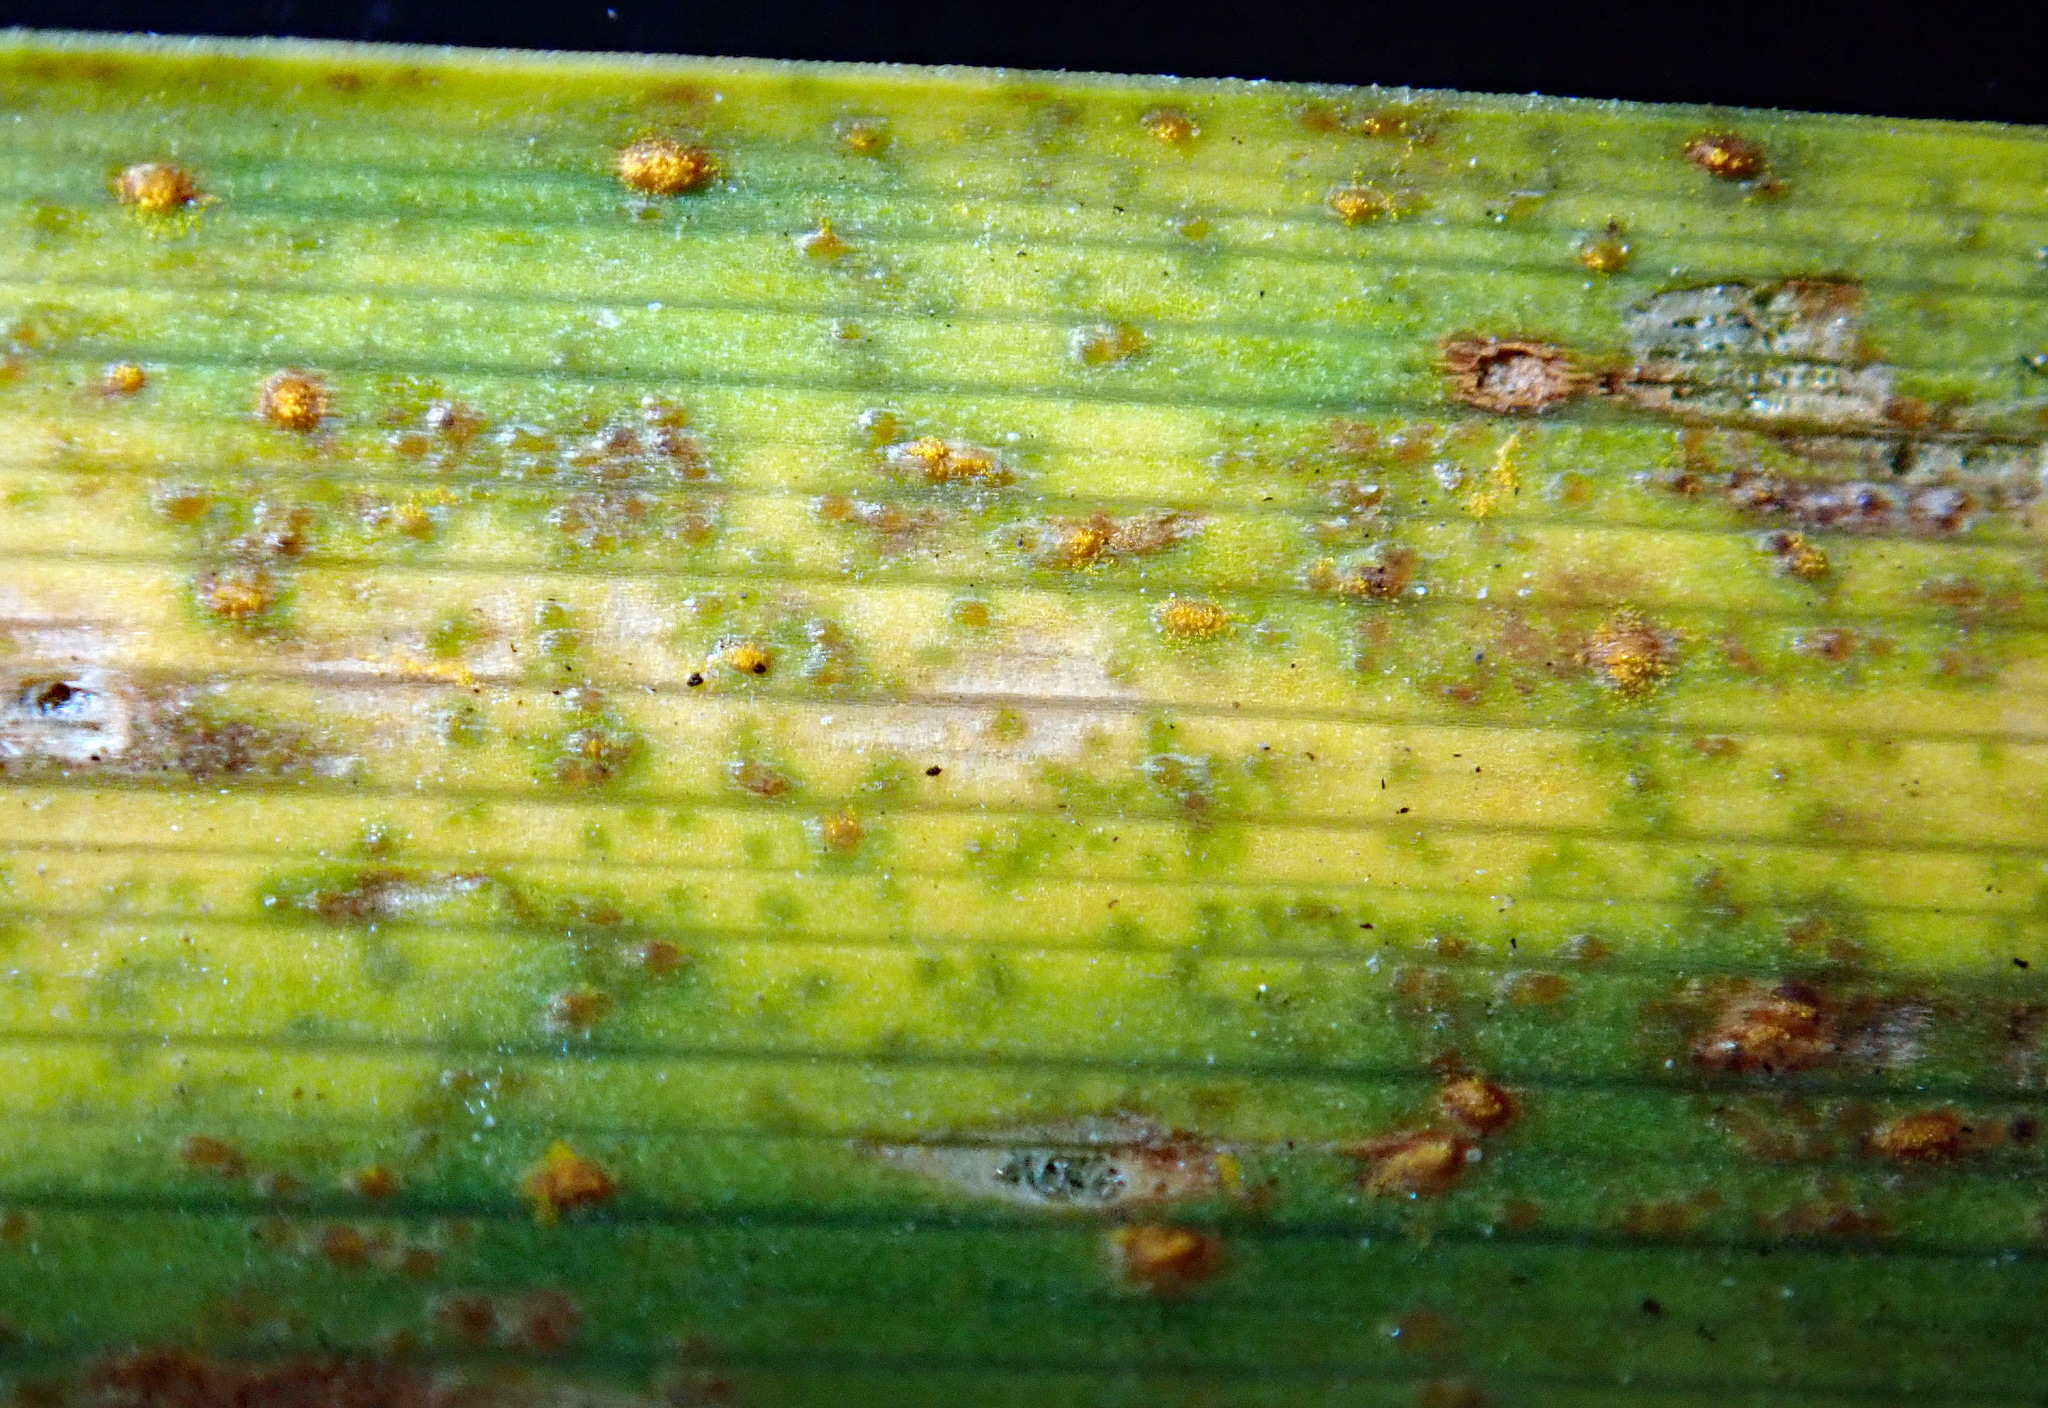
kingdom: Fungi
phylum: Basidiomycota
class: Pucciniomycetes
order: Pucciniales
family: Pucciniaceae
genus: Puccinia
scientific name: Puccinia hemerocallidis
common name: Rust fungus
